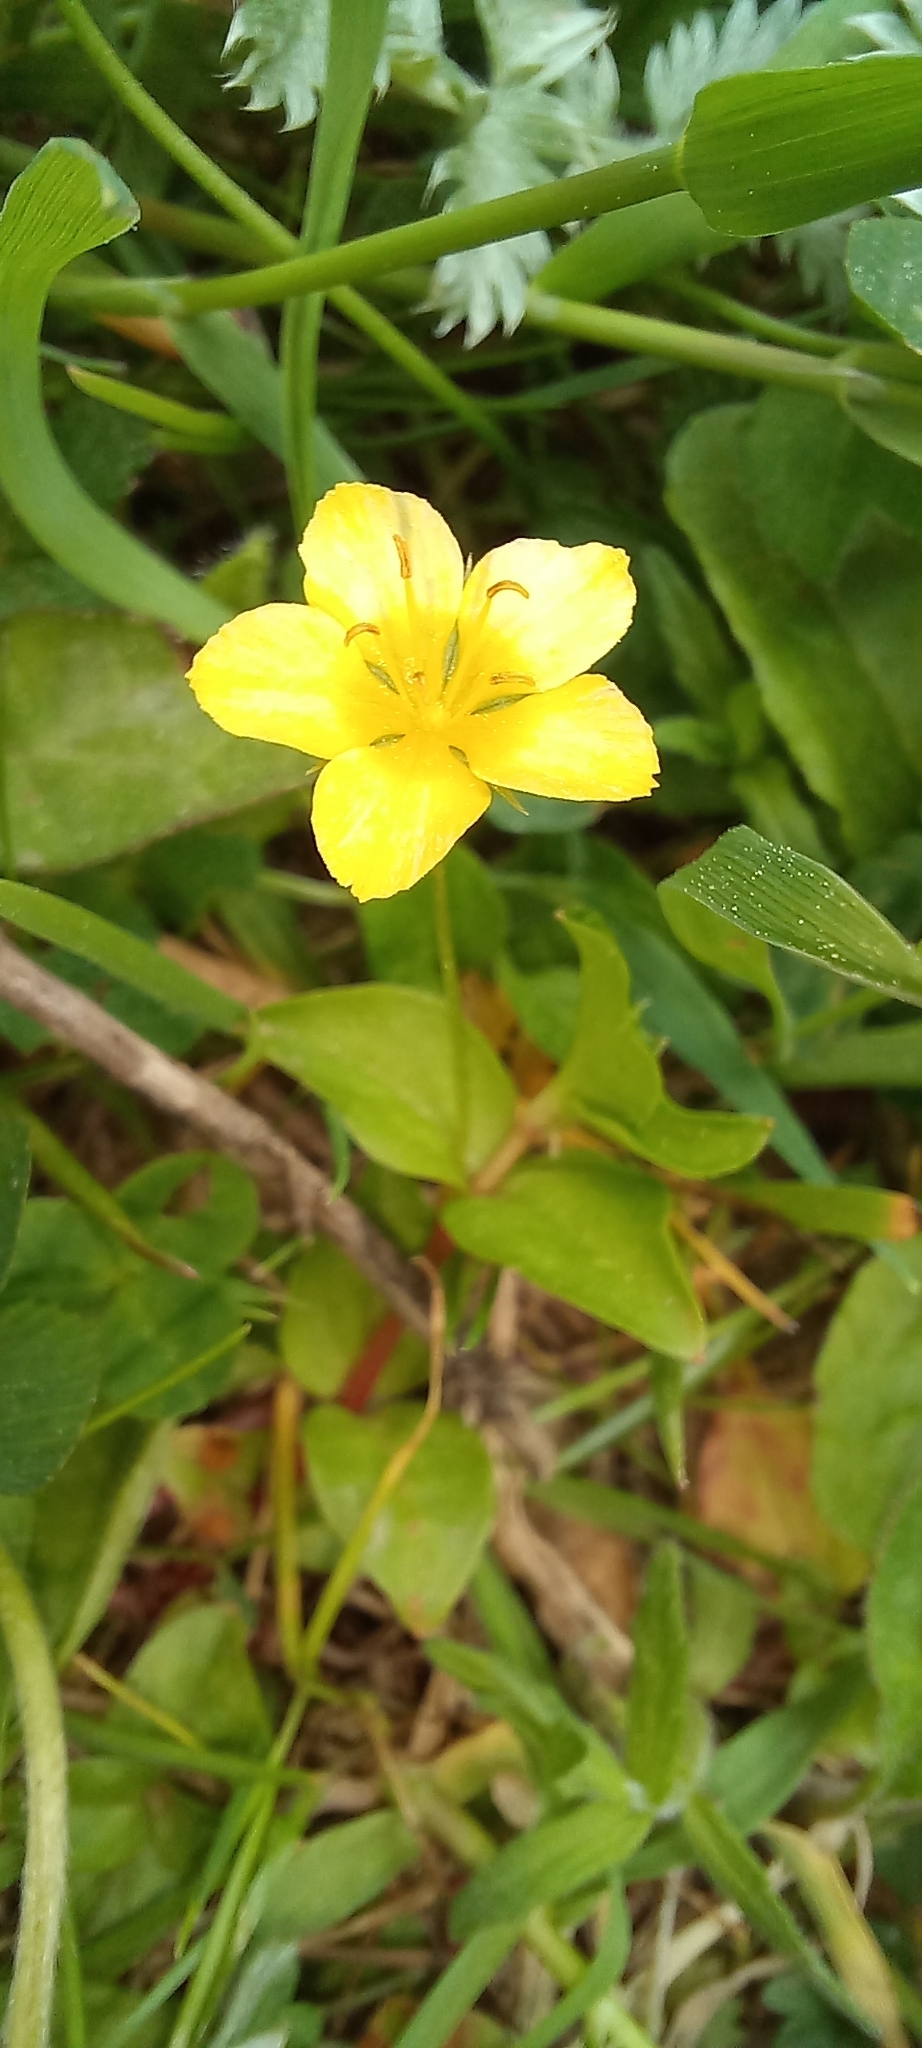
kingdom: Plantae
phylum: Tracheophyta
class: Magnoliopsida
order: Rosales
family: Rosaceae
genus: Argentina
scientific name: Argentina anserina
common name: Common silverweed
